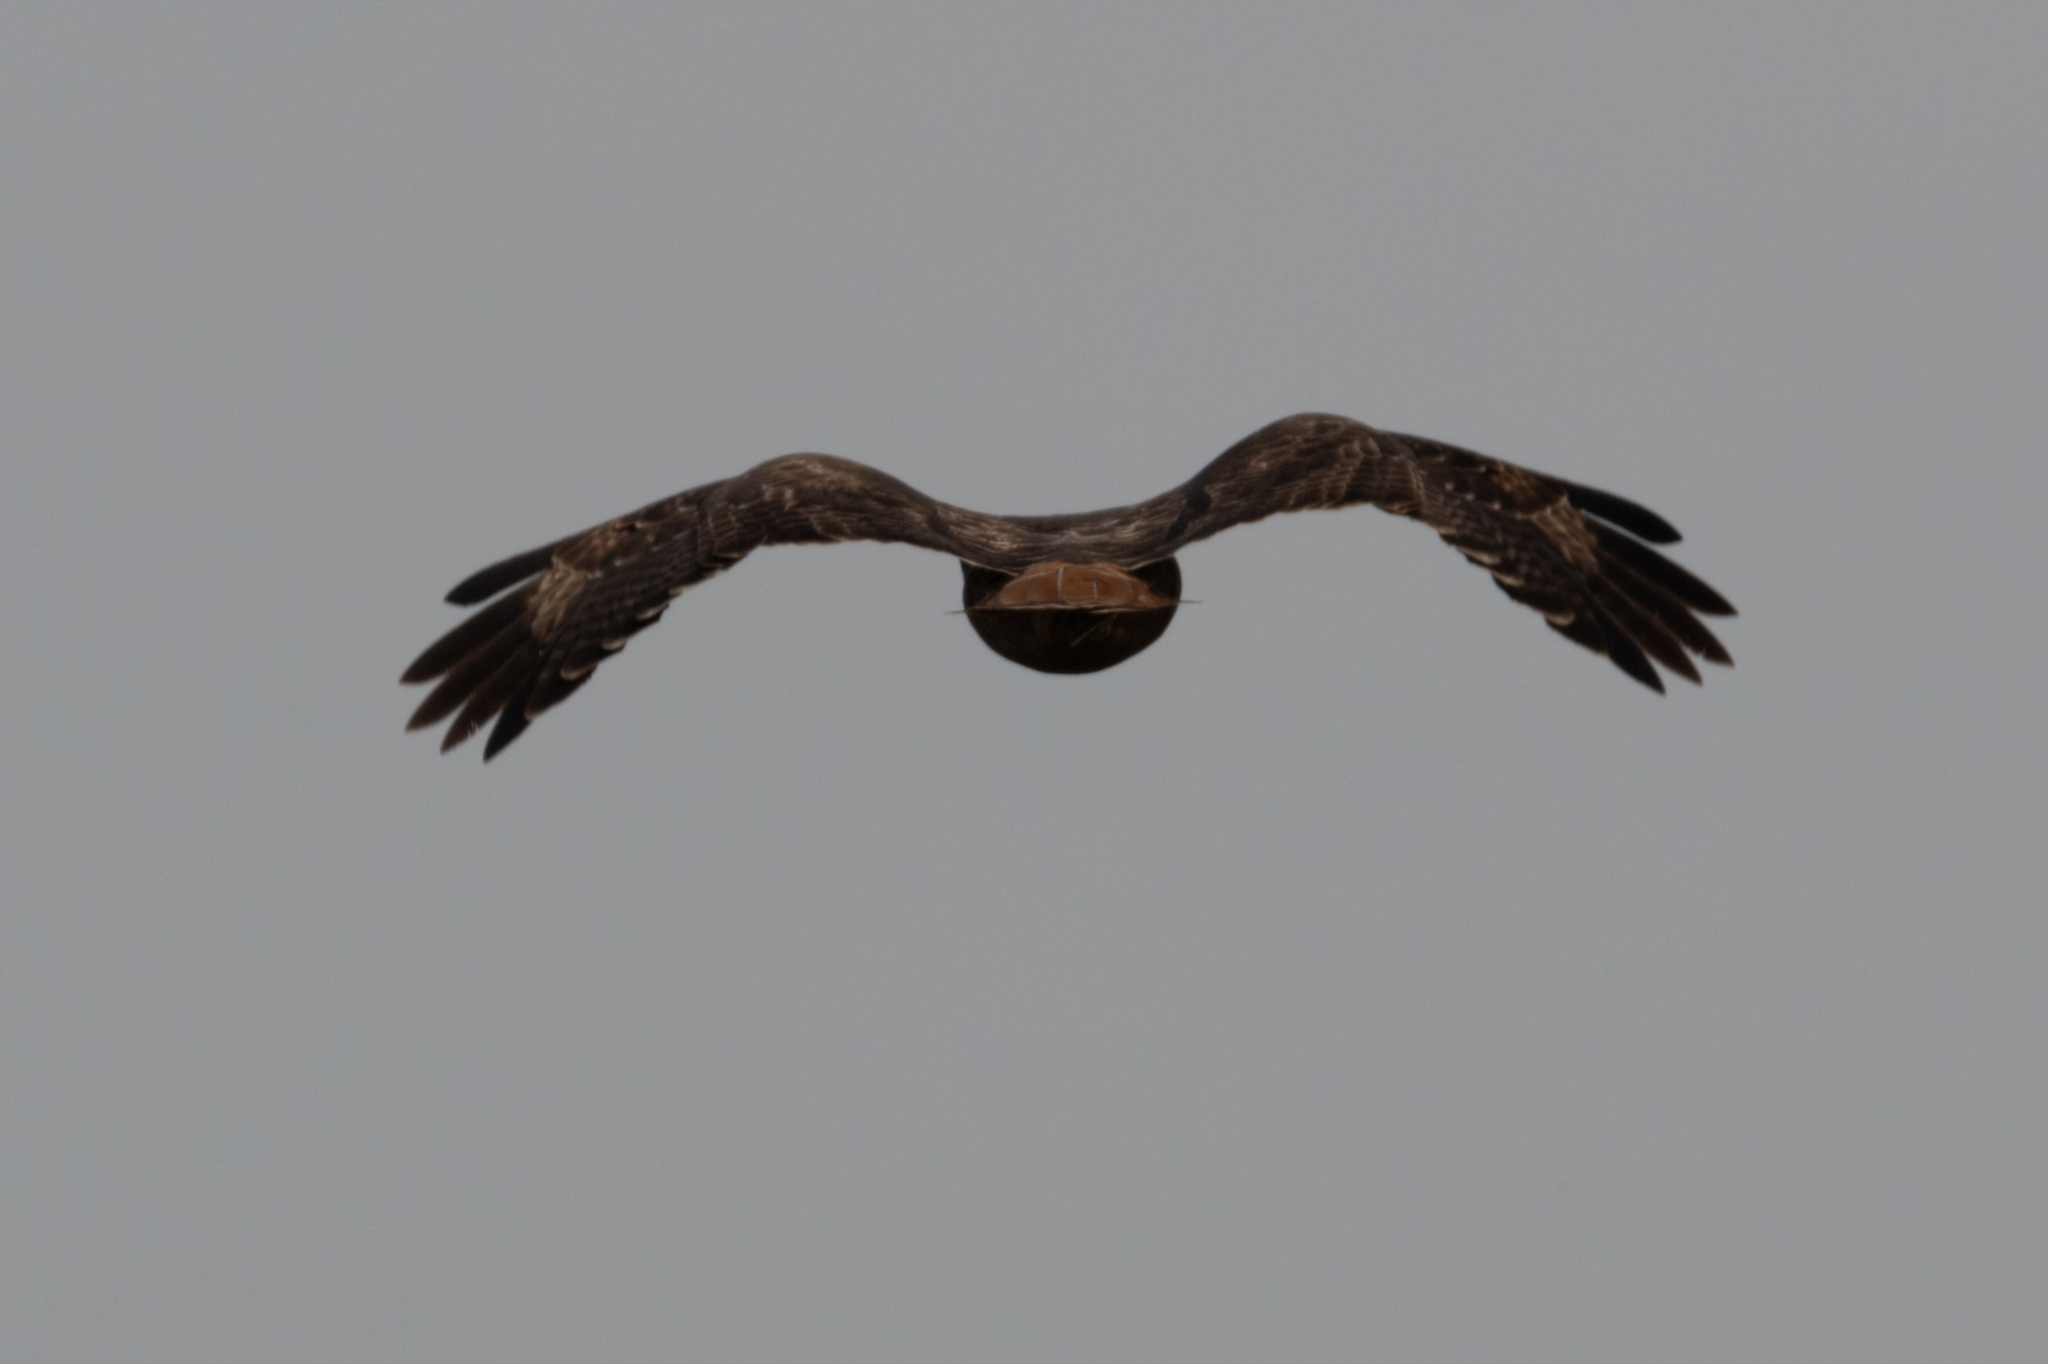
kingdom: Animalia
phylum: Chordata
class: Aves
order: Accipitriformes
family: Accipitridae
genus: Buteo
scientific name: Buteo jamaicensis
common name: Red-tailed hawk
